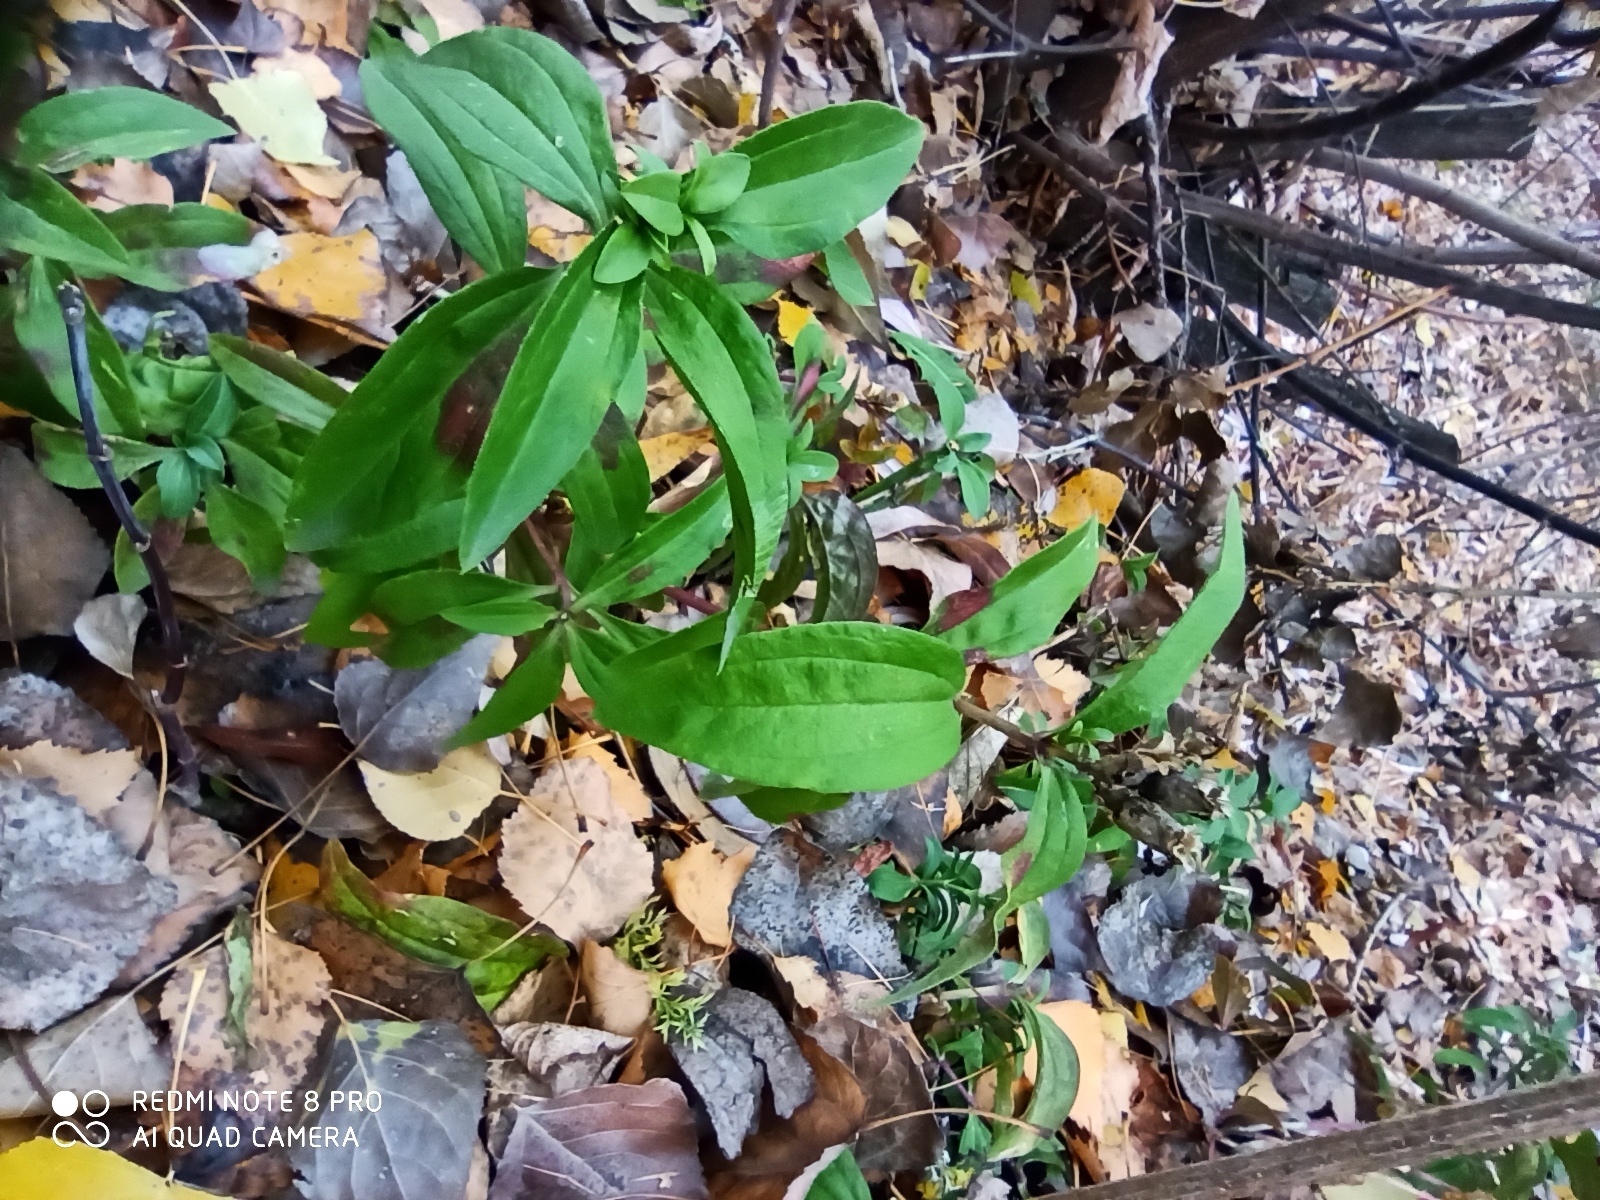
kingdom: Plantae
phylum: Tracheophyta
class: Magnoliopsida
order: Caryophyllales
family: Caryophyllaceae
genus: Saponaria
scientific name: Saponaria officinalis
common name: Soapwort
